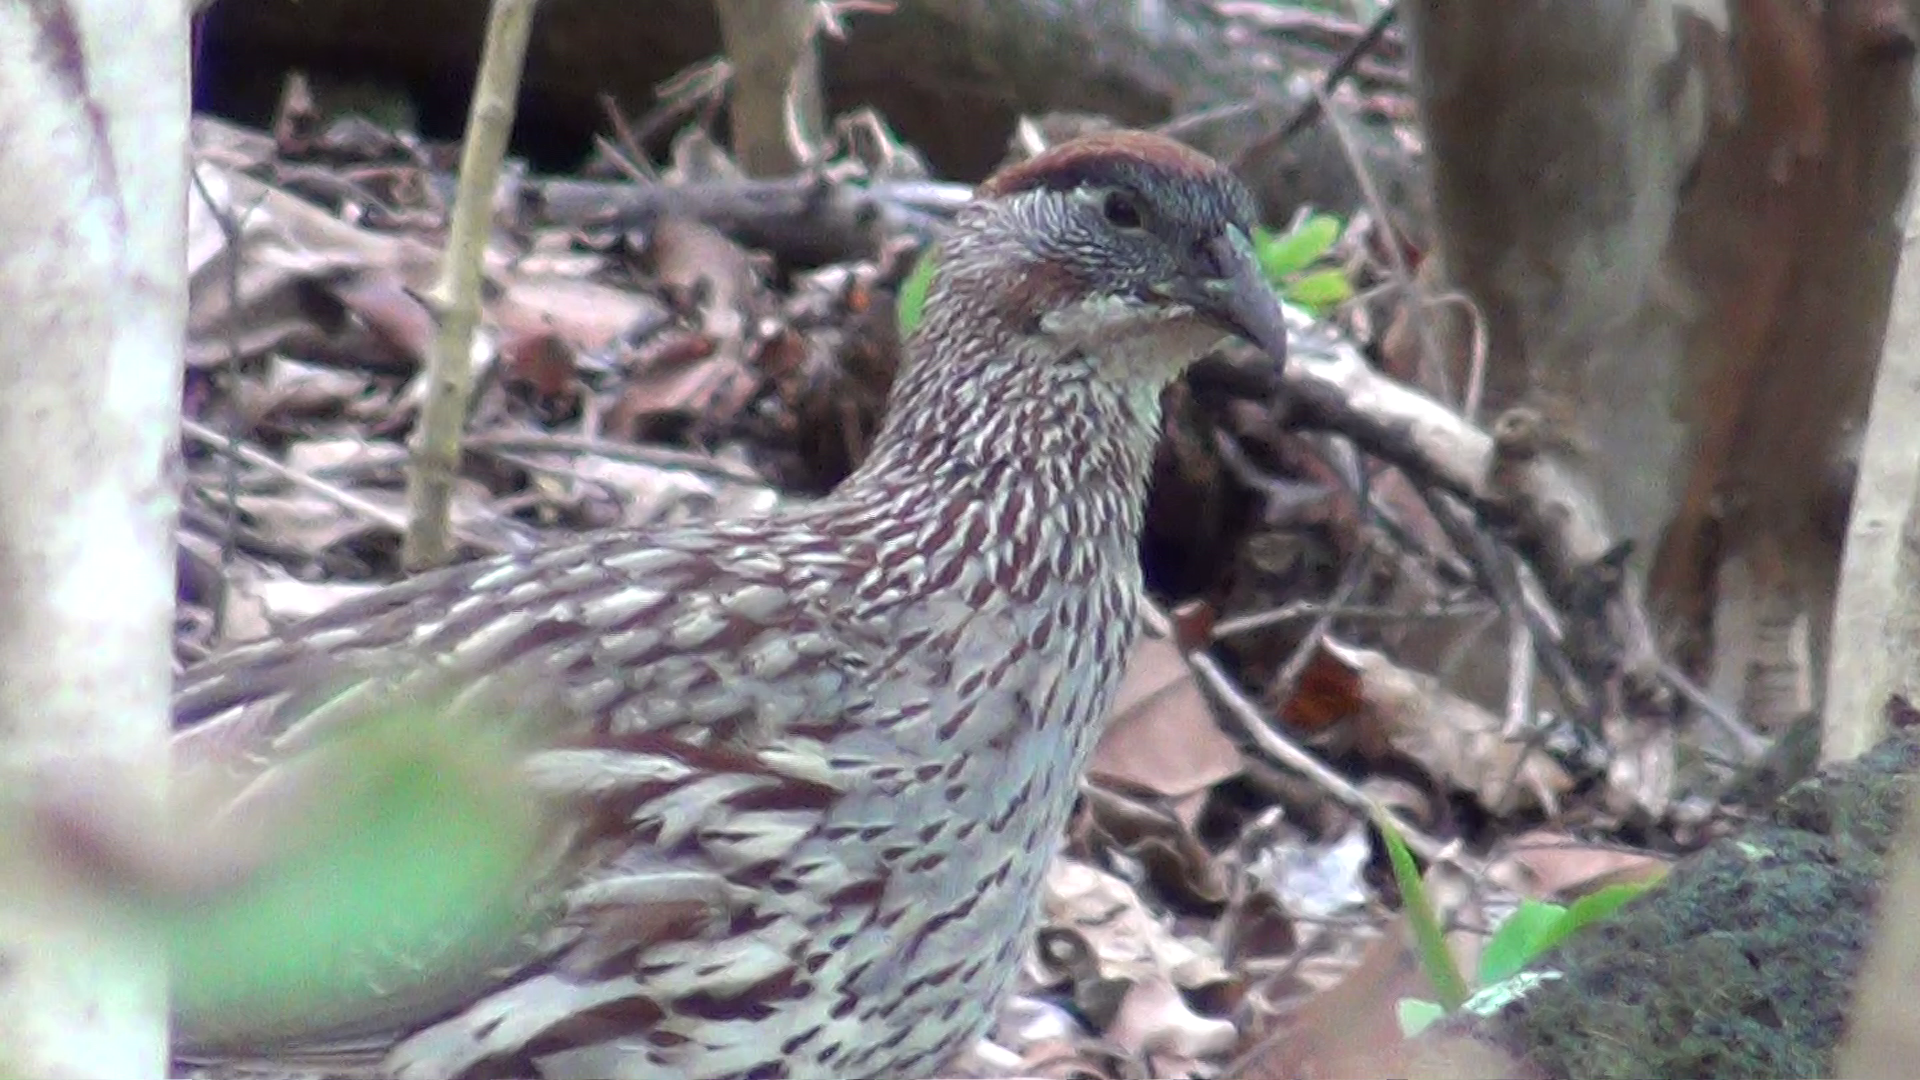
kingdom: Animalia
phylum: Chordata
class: Aves
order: Galliformes
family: Phasianidae
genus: Pternistis
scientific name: Pternistis erckelii
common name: Erckel's francolin
